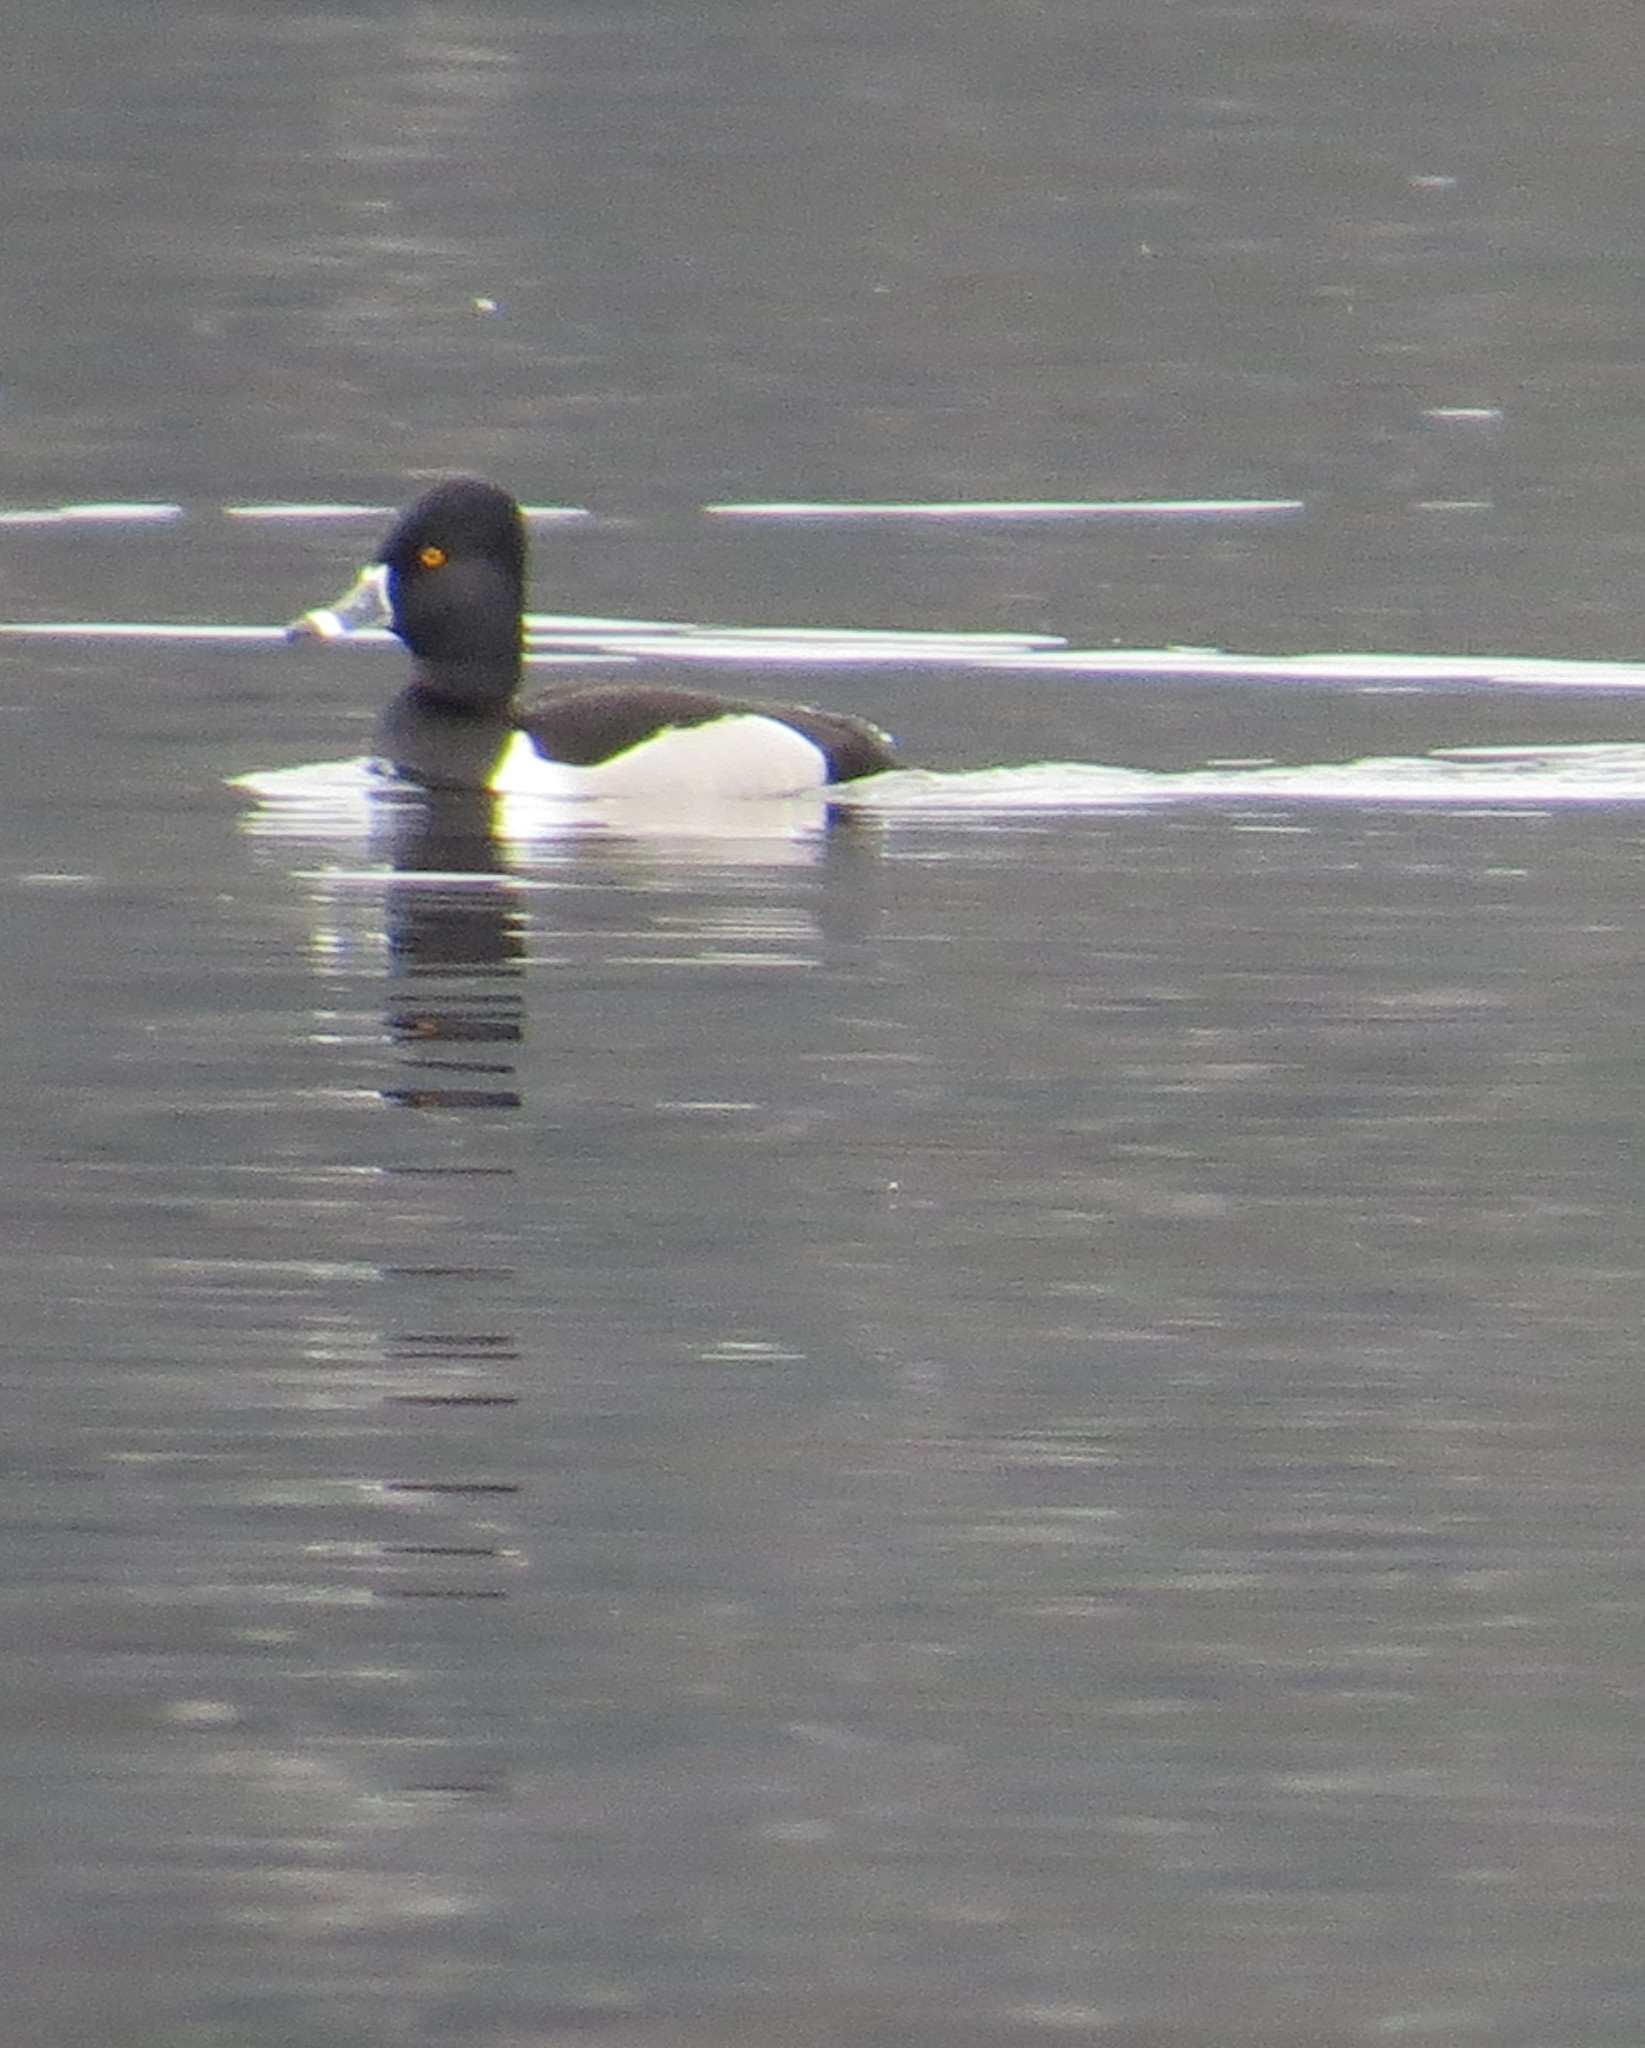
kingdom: Animalia
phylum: Chordata
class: Aves
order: Anseriformes
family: Anatidae
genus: Aythya
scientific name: Aythya collaris
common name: Ring-necked duck
